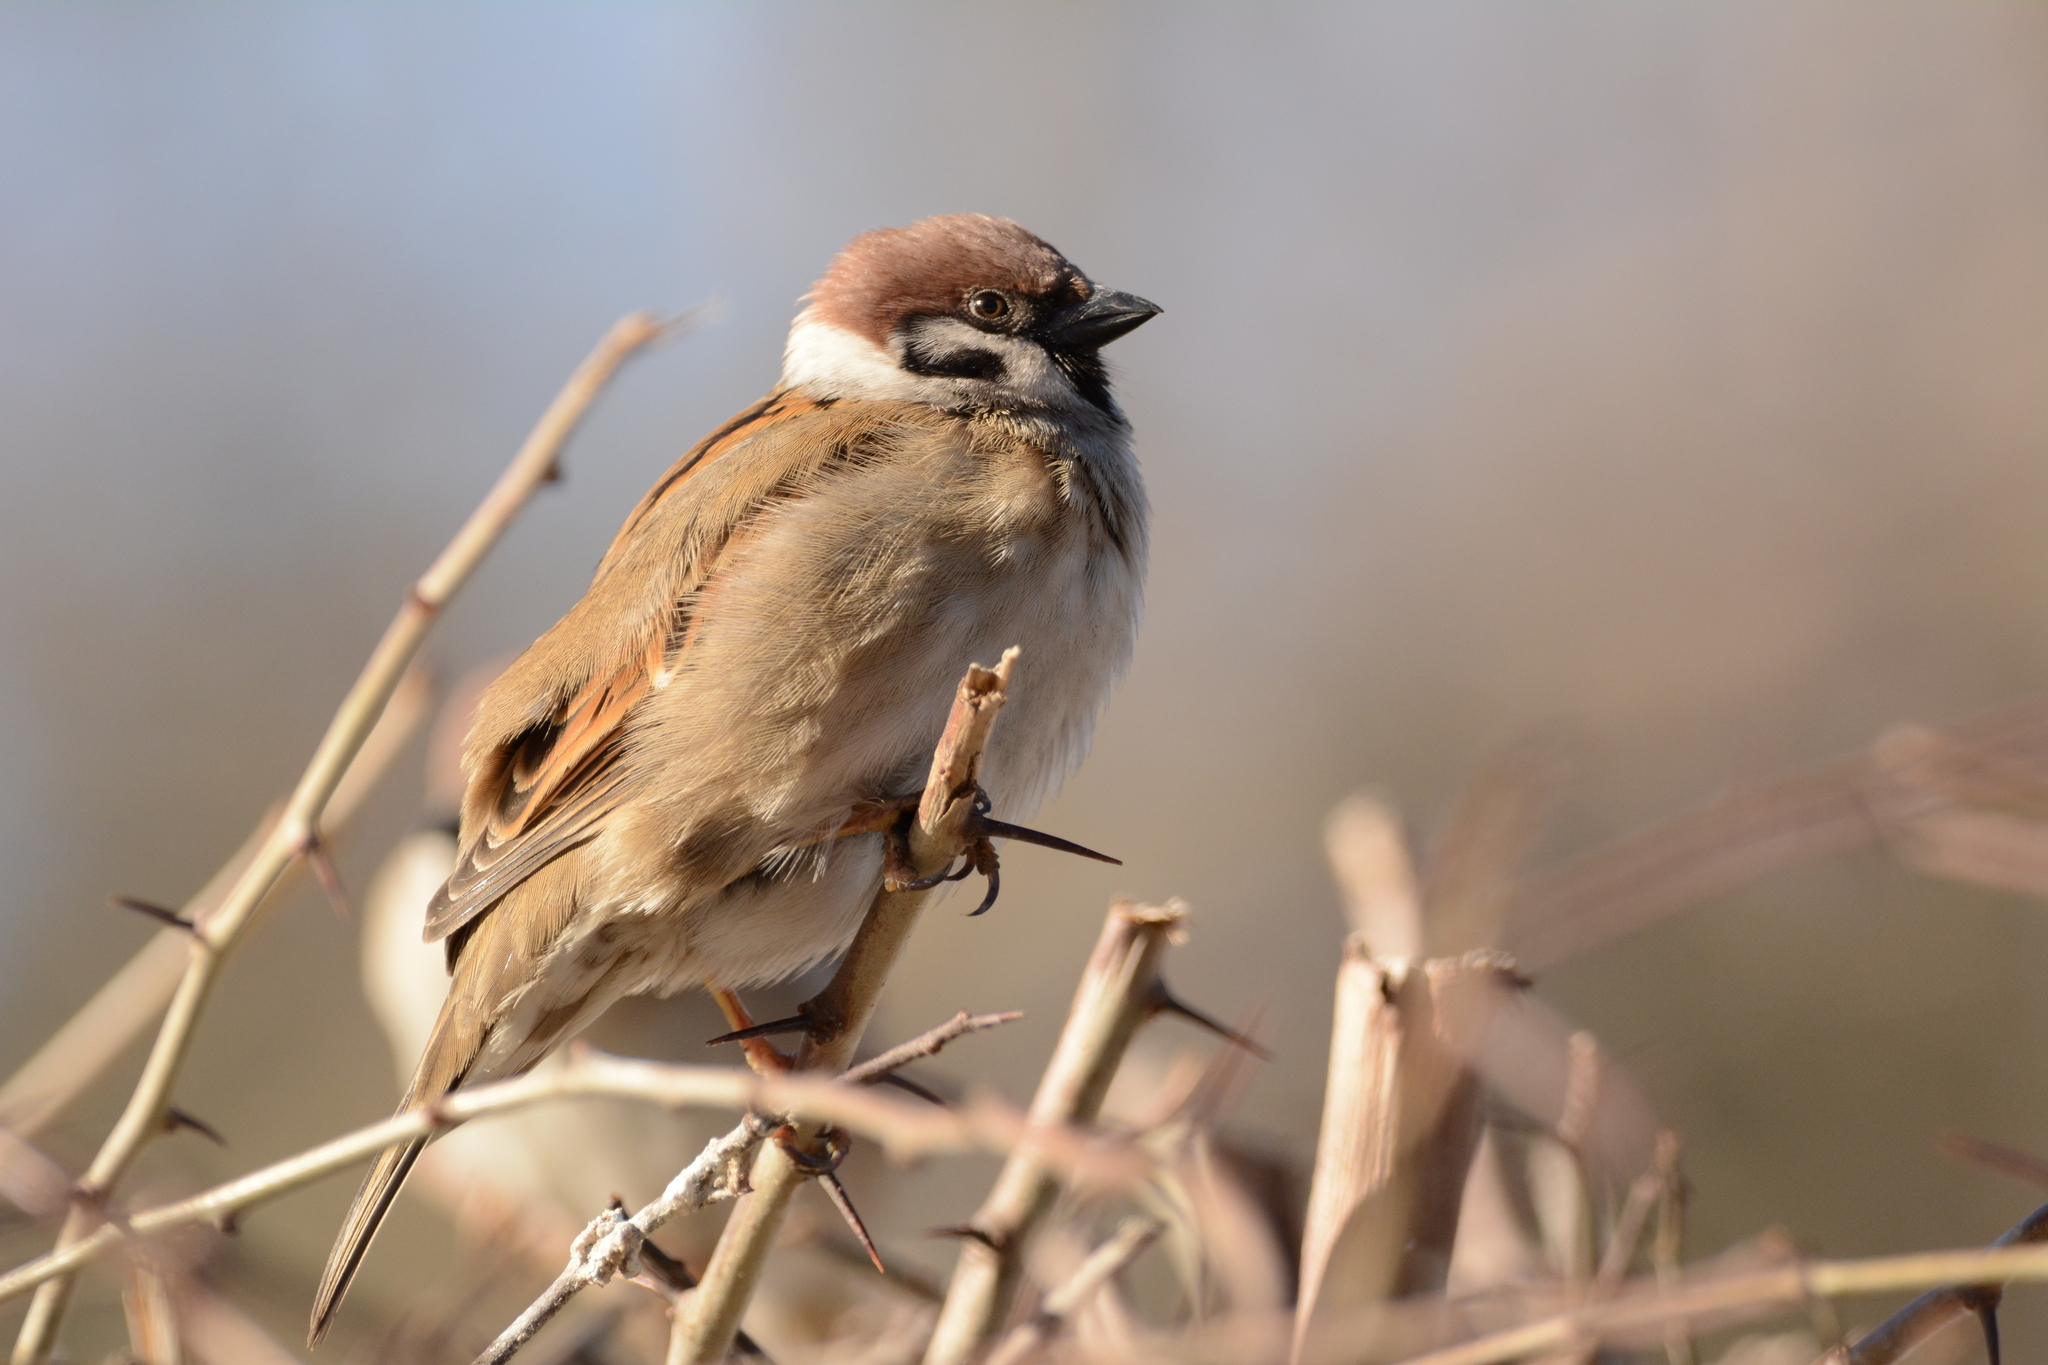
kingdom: Animalia
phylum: Chordata
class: Aves
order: Passeriformes
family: Passeridae
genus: Passer
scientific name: Passer montanus
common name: Eurasian tree sparrow
